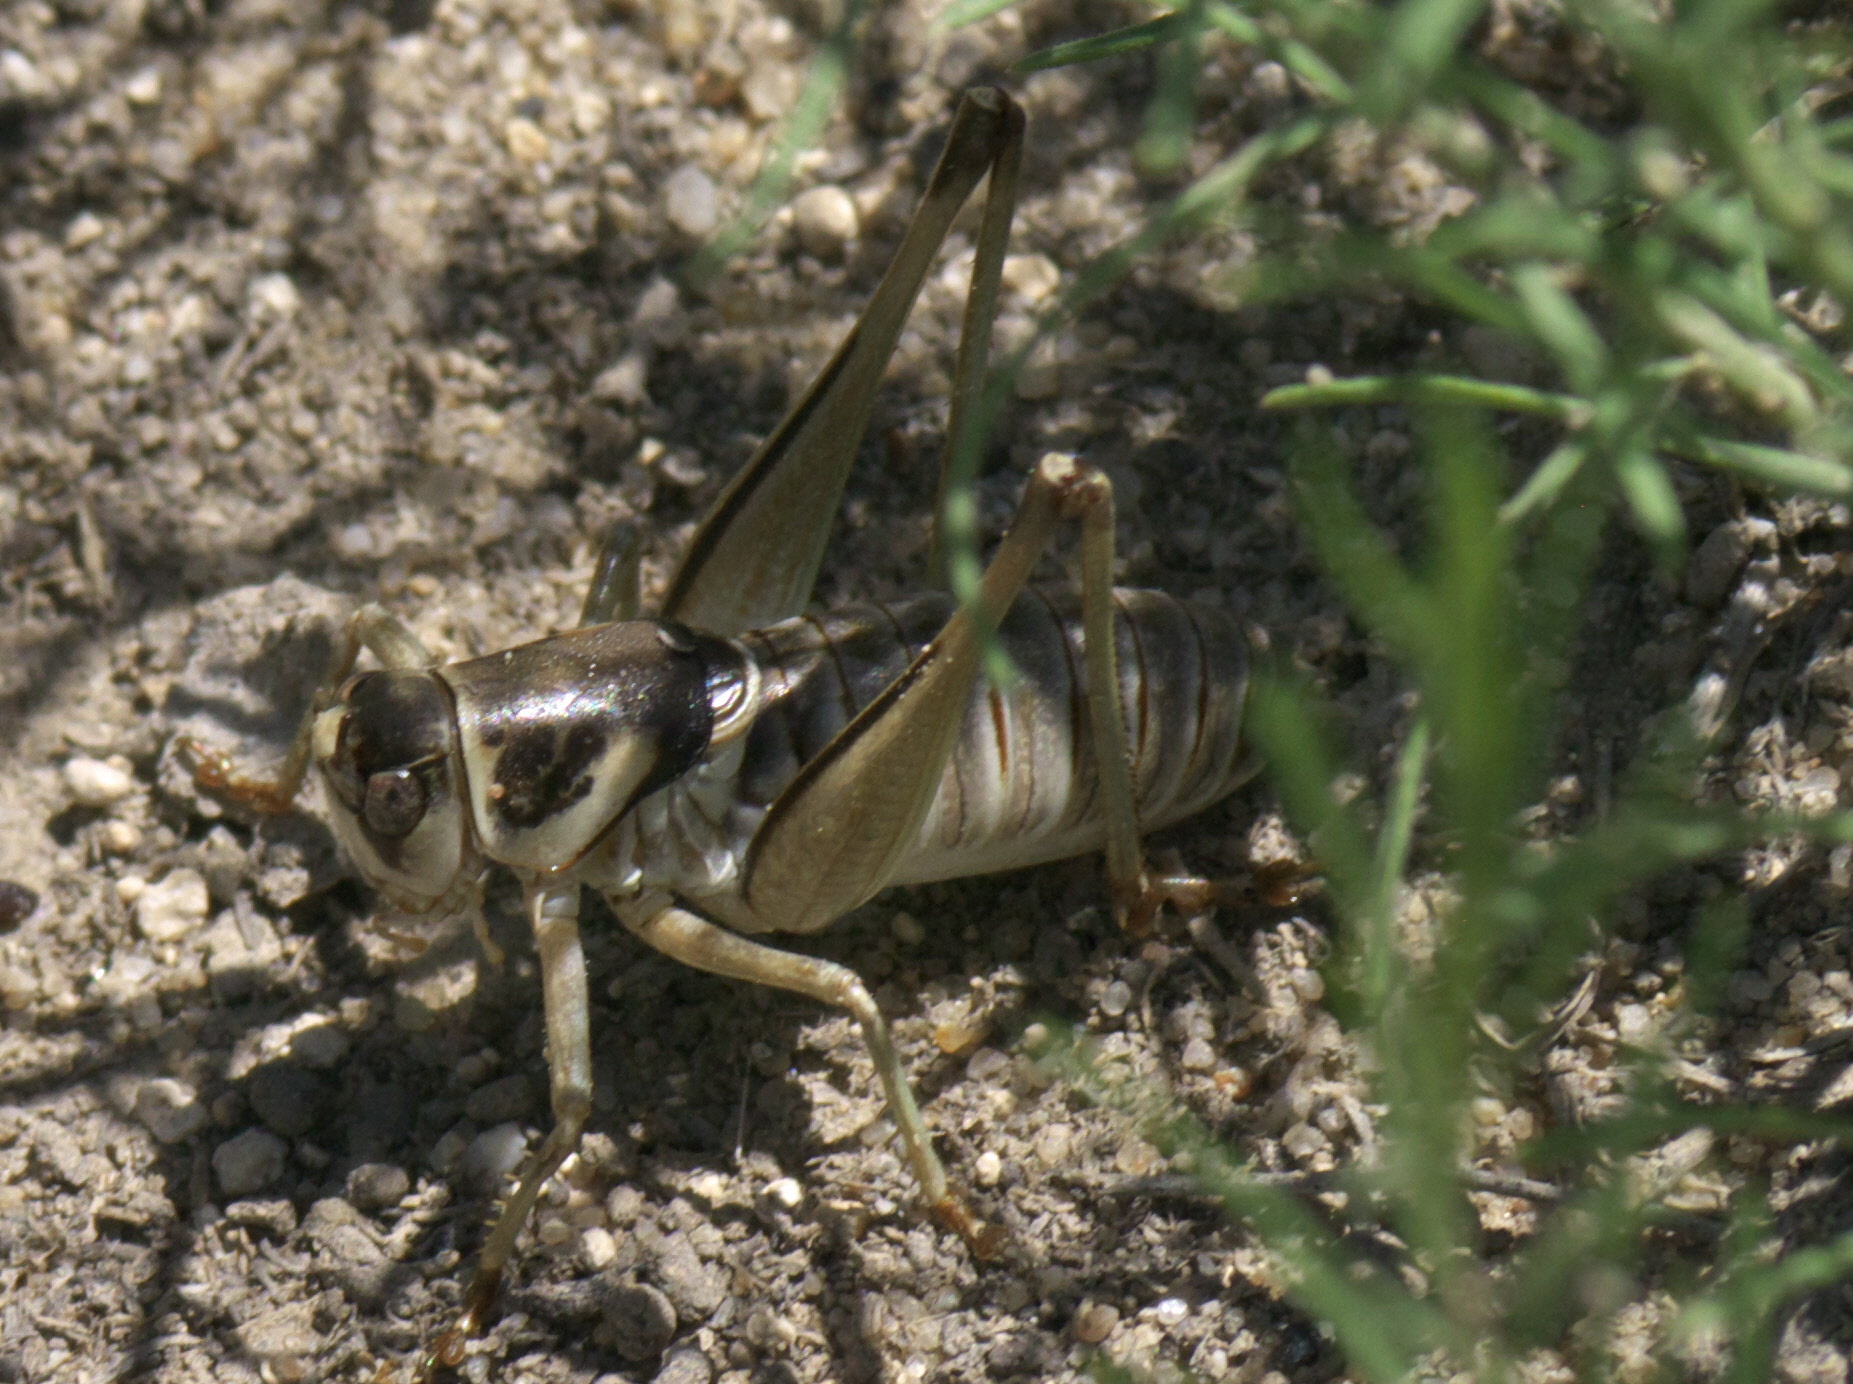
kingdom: Animalia
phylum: Arthropoda
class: Insecta
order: Orthoptera
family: Tettigoniidae
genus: Pediodectes
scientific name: Pediodectes stevensonii
